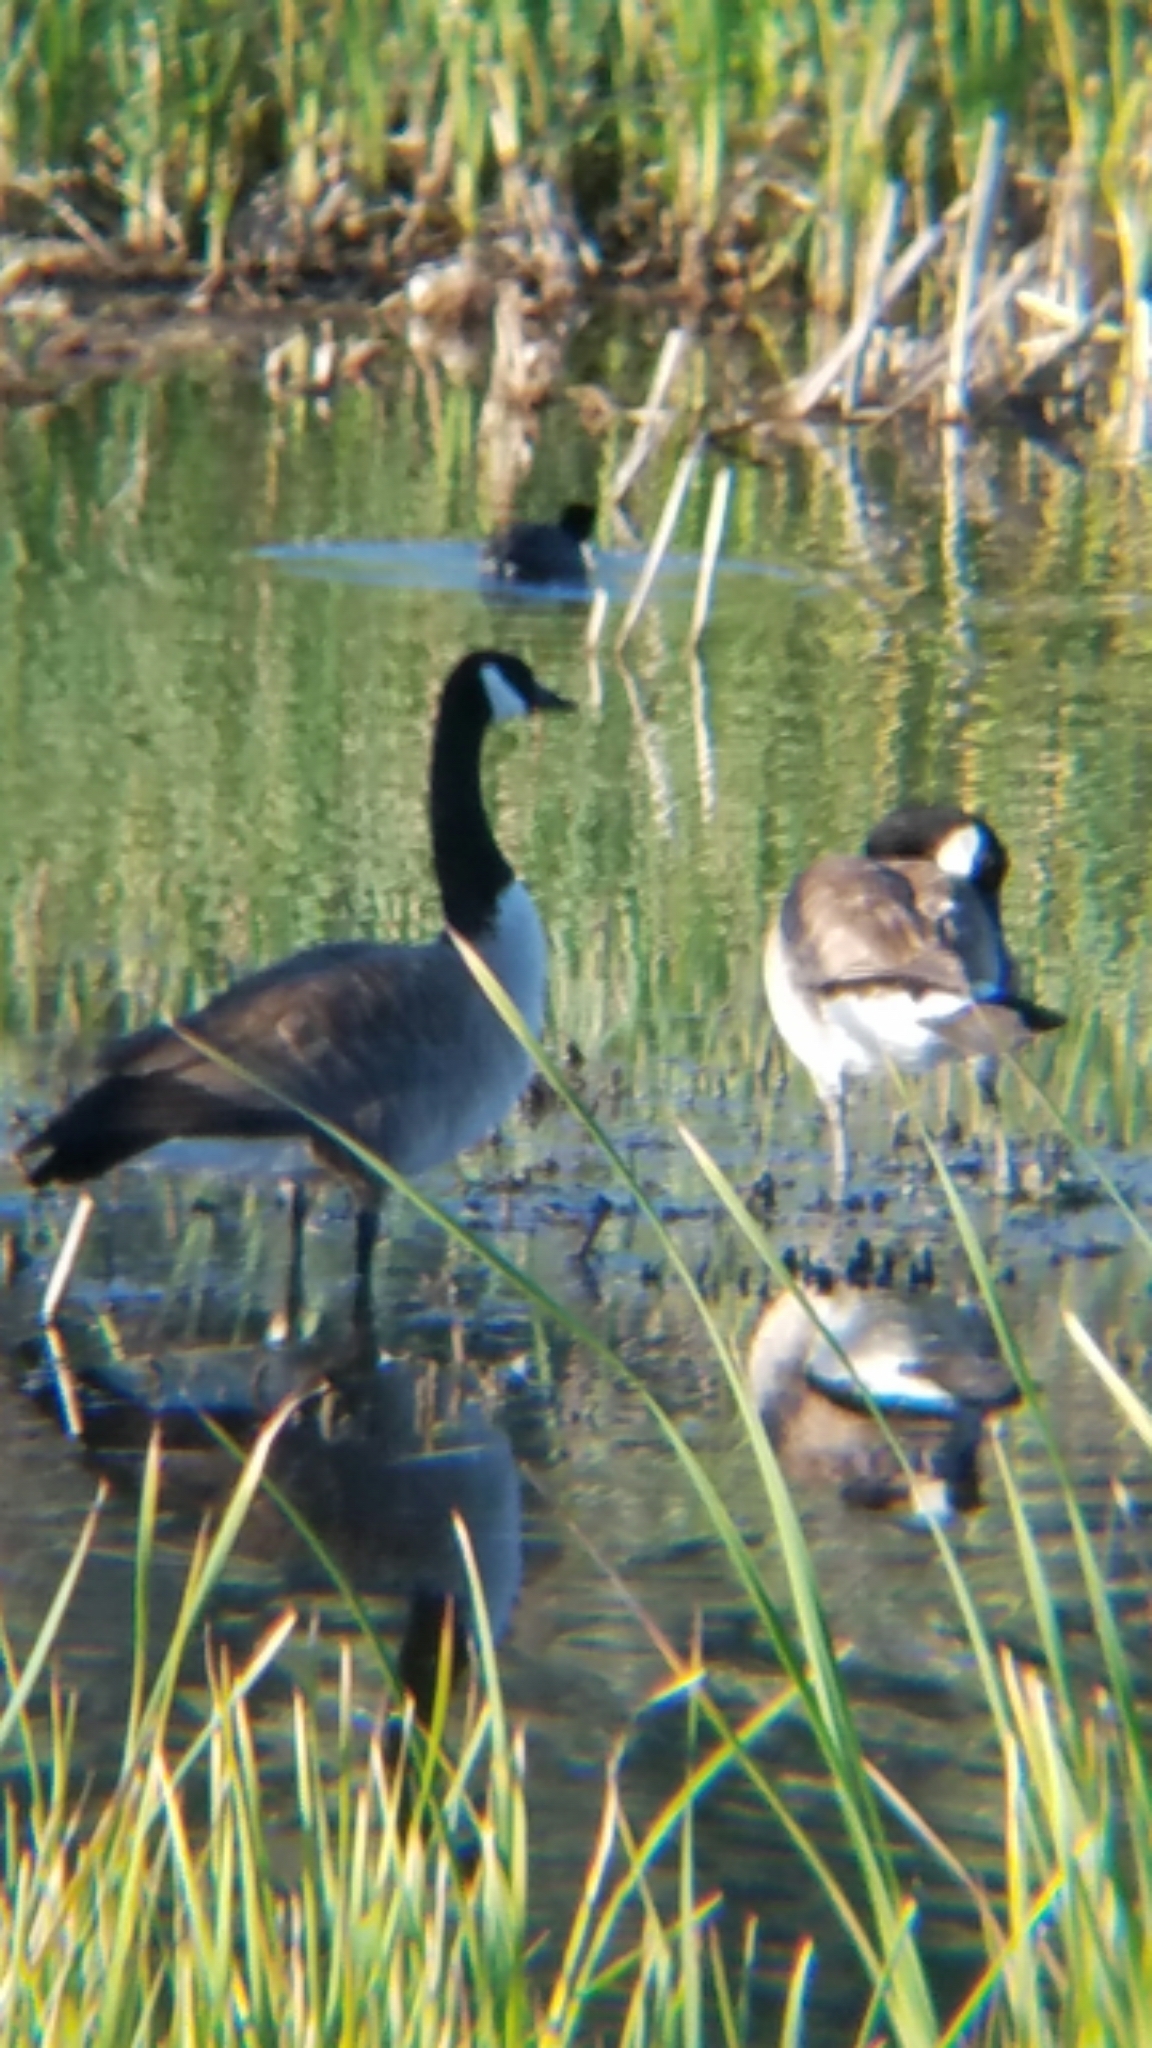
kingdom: Animalia
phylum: Chordata
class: Aves
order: Anseriformes
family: Anatidae
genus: Branta
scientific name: Branta canadensis
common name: Canada goose
